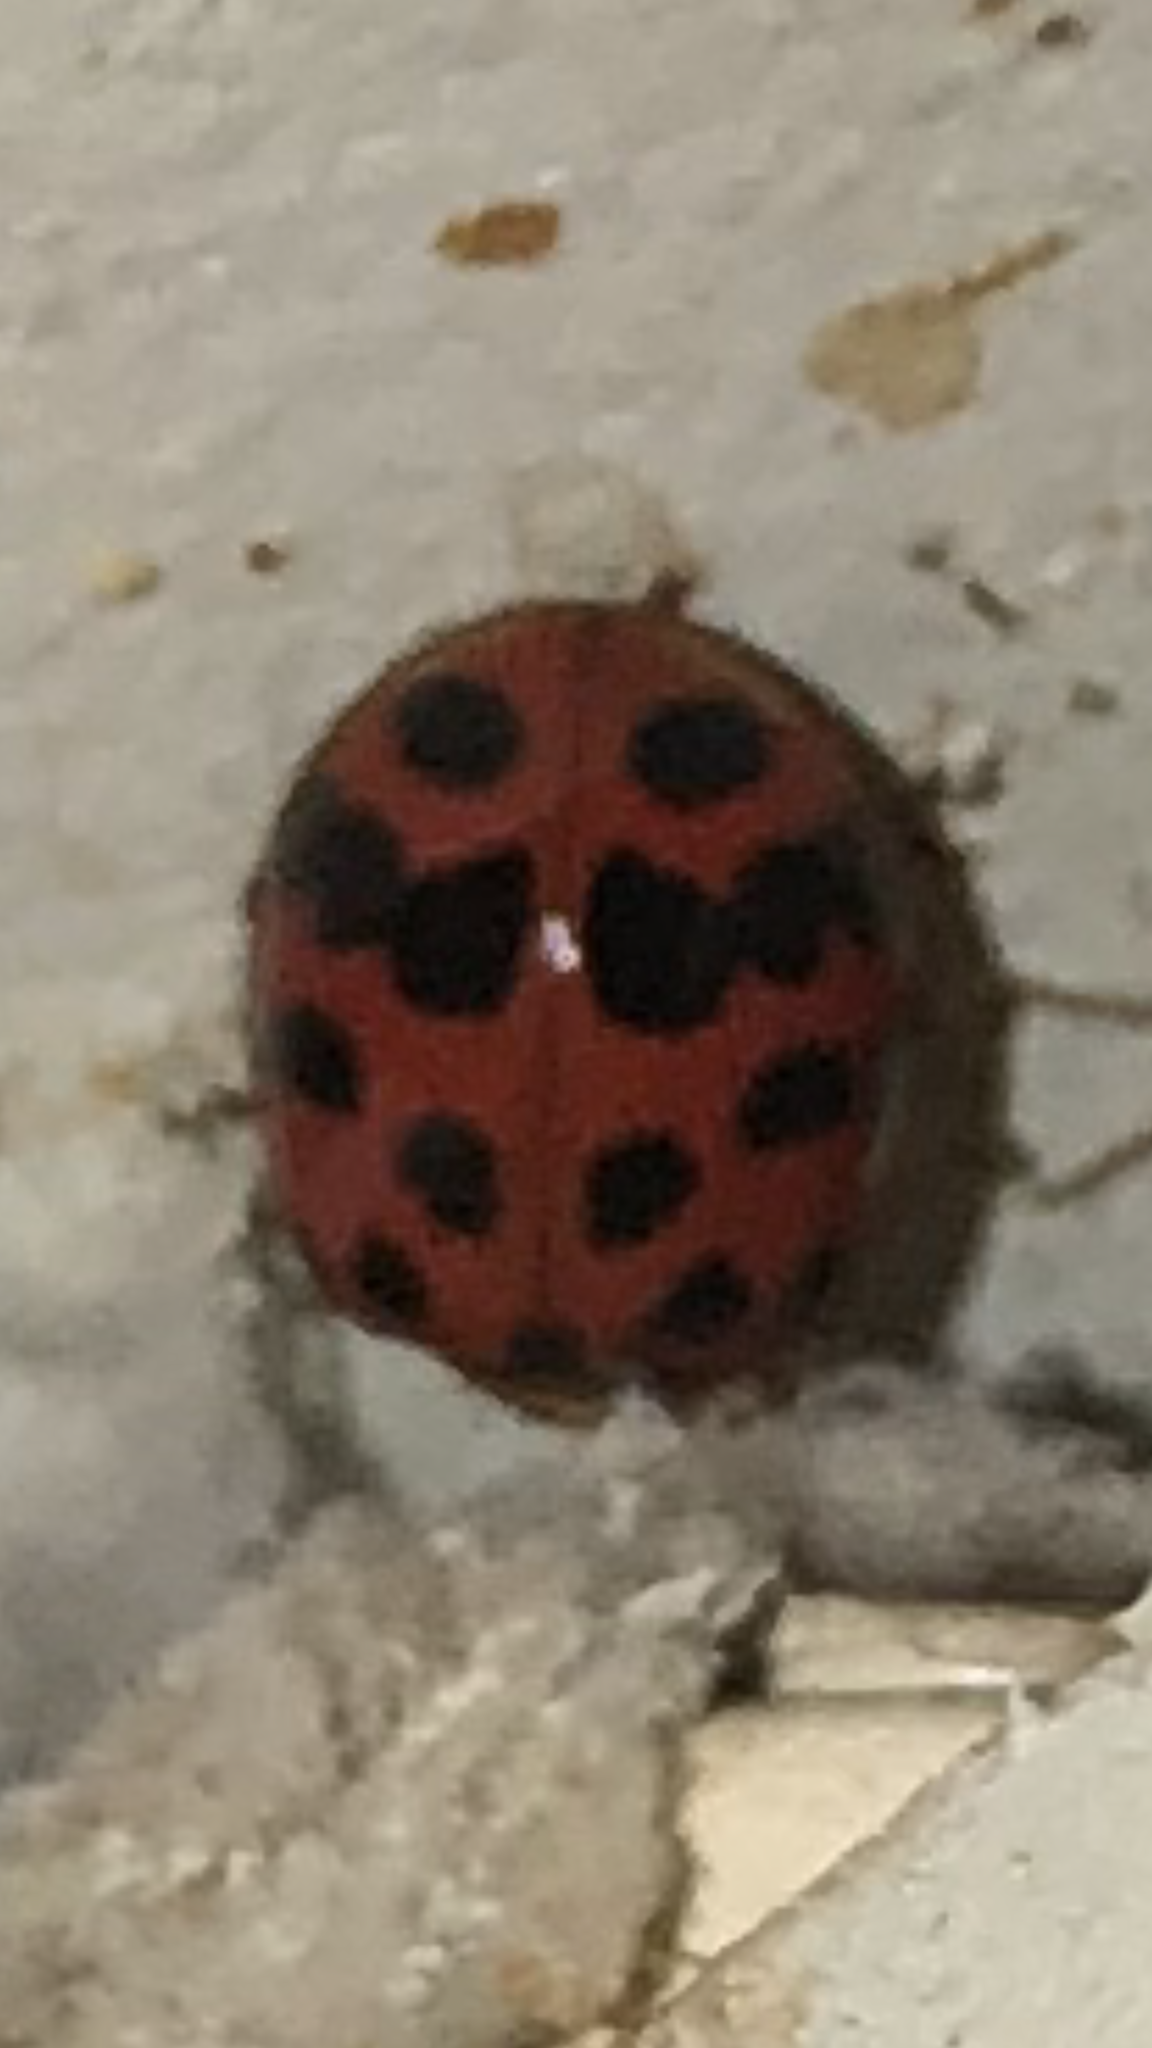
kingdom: Animalia
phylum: Arthropoda
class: Insecta
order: Coleoptera
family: Coccinellidae
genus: Harmonia
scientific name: Harmonia axyridis
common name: Harlequin ladybird
